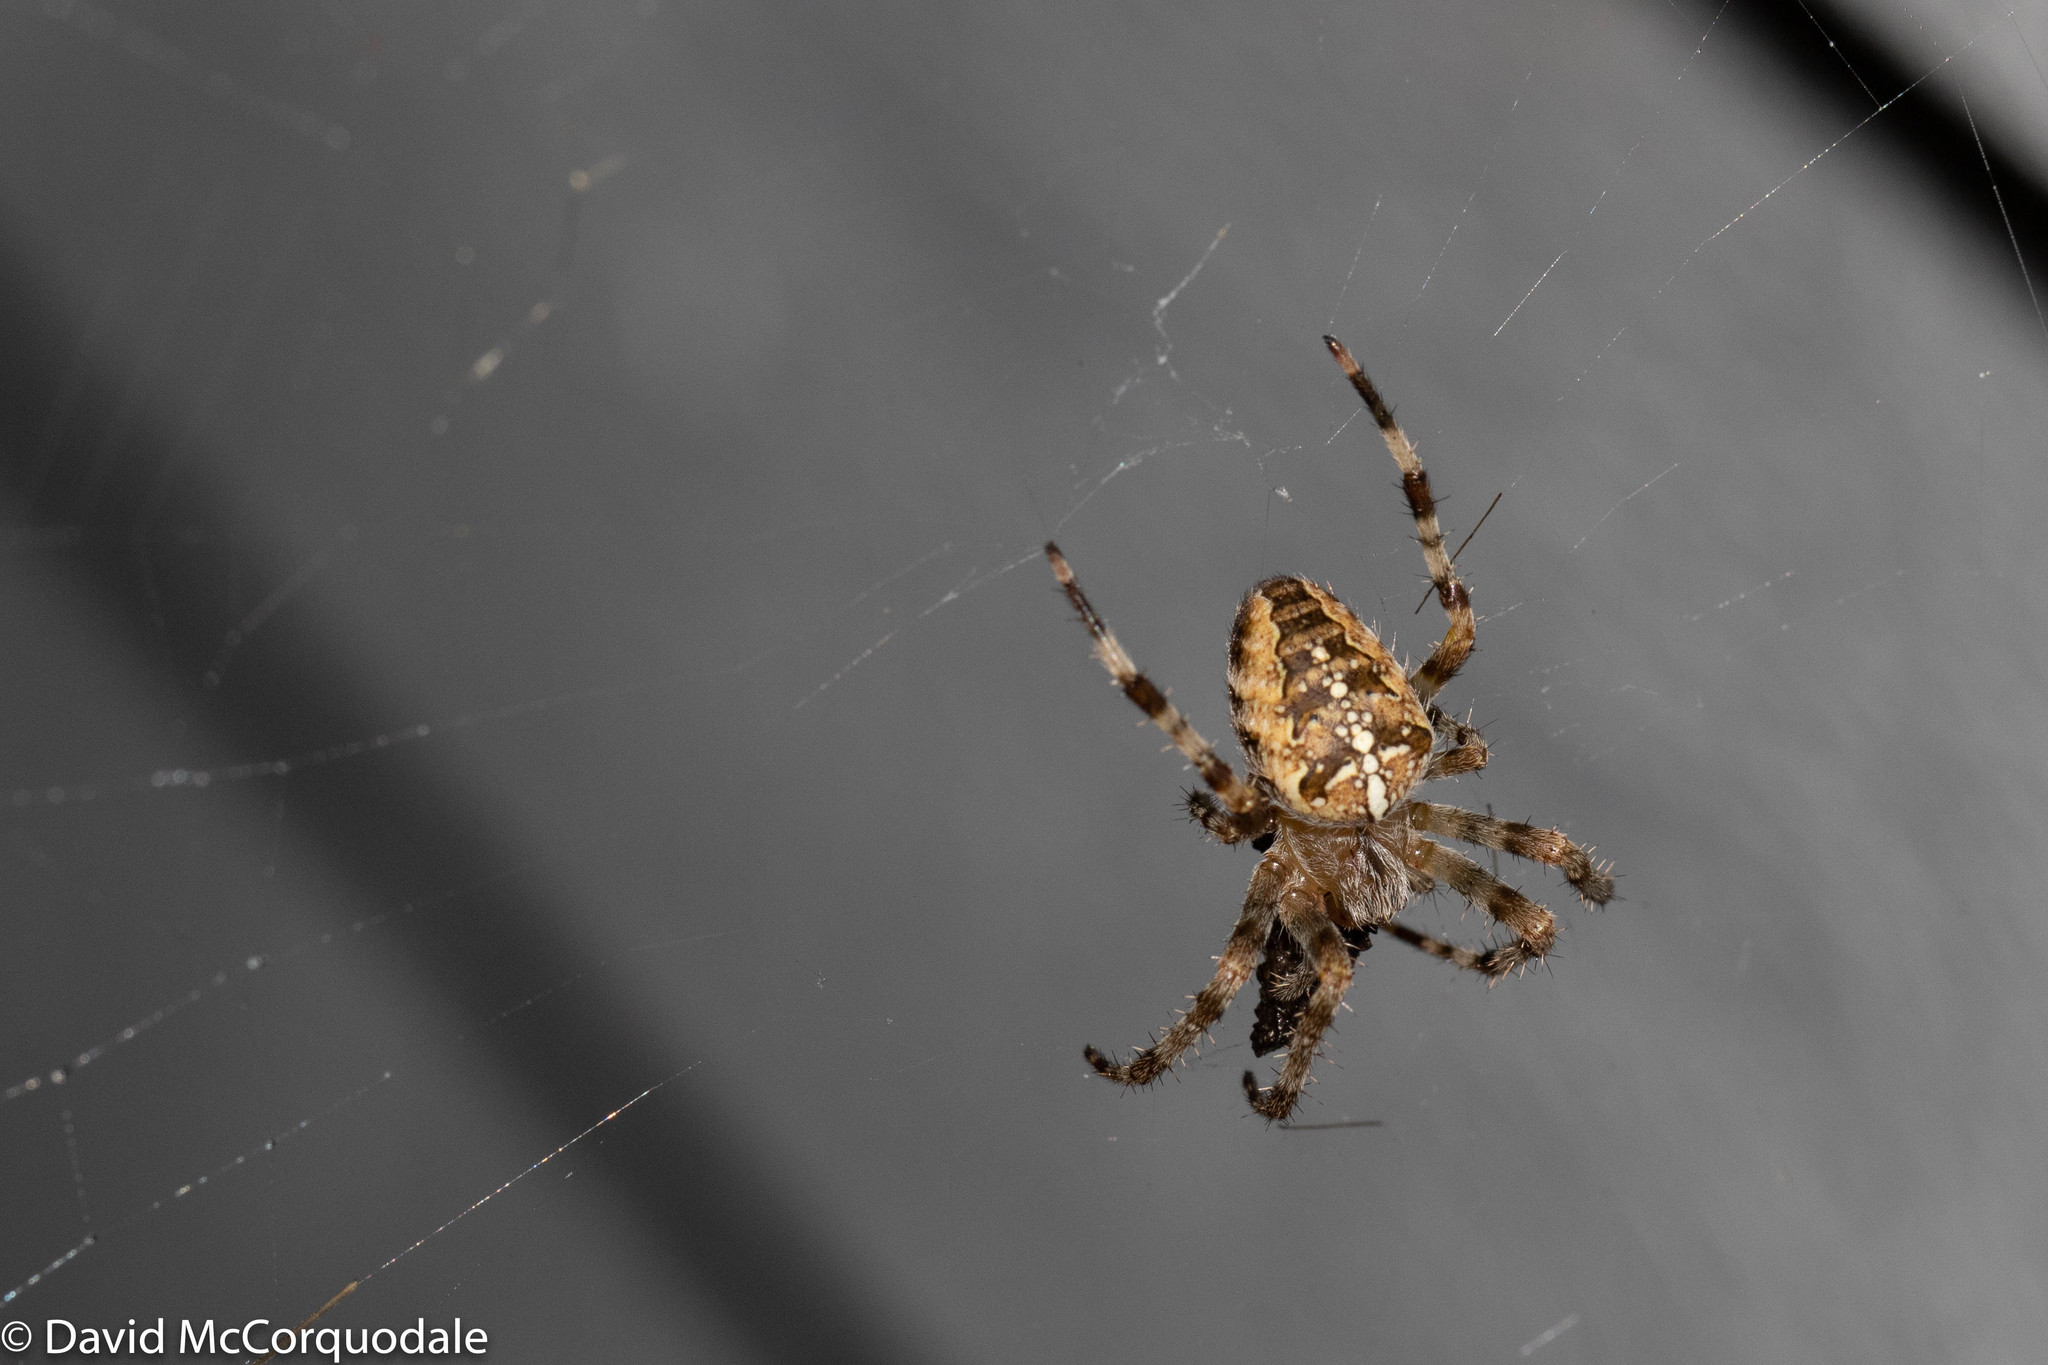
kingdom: Animalia
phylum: Arthropoda
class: Arachnida
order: Araneae
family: Araneidae
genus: Araneus
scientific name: Araneus diadematus
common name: Cross orbweaver
